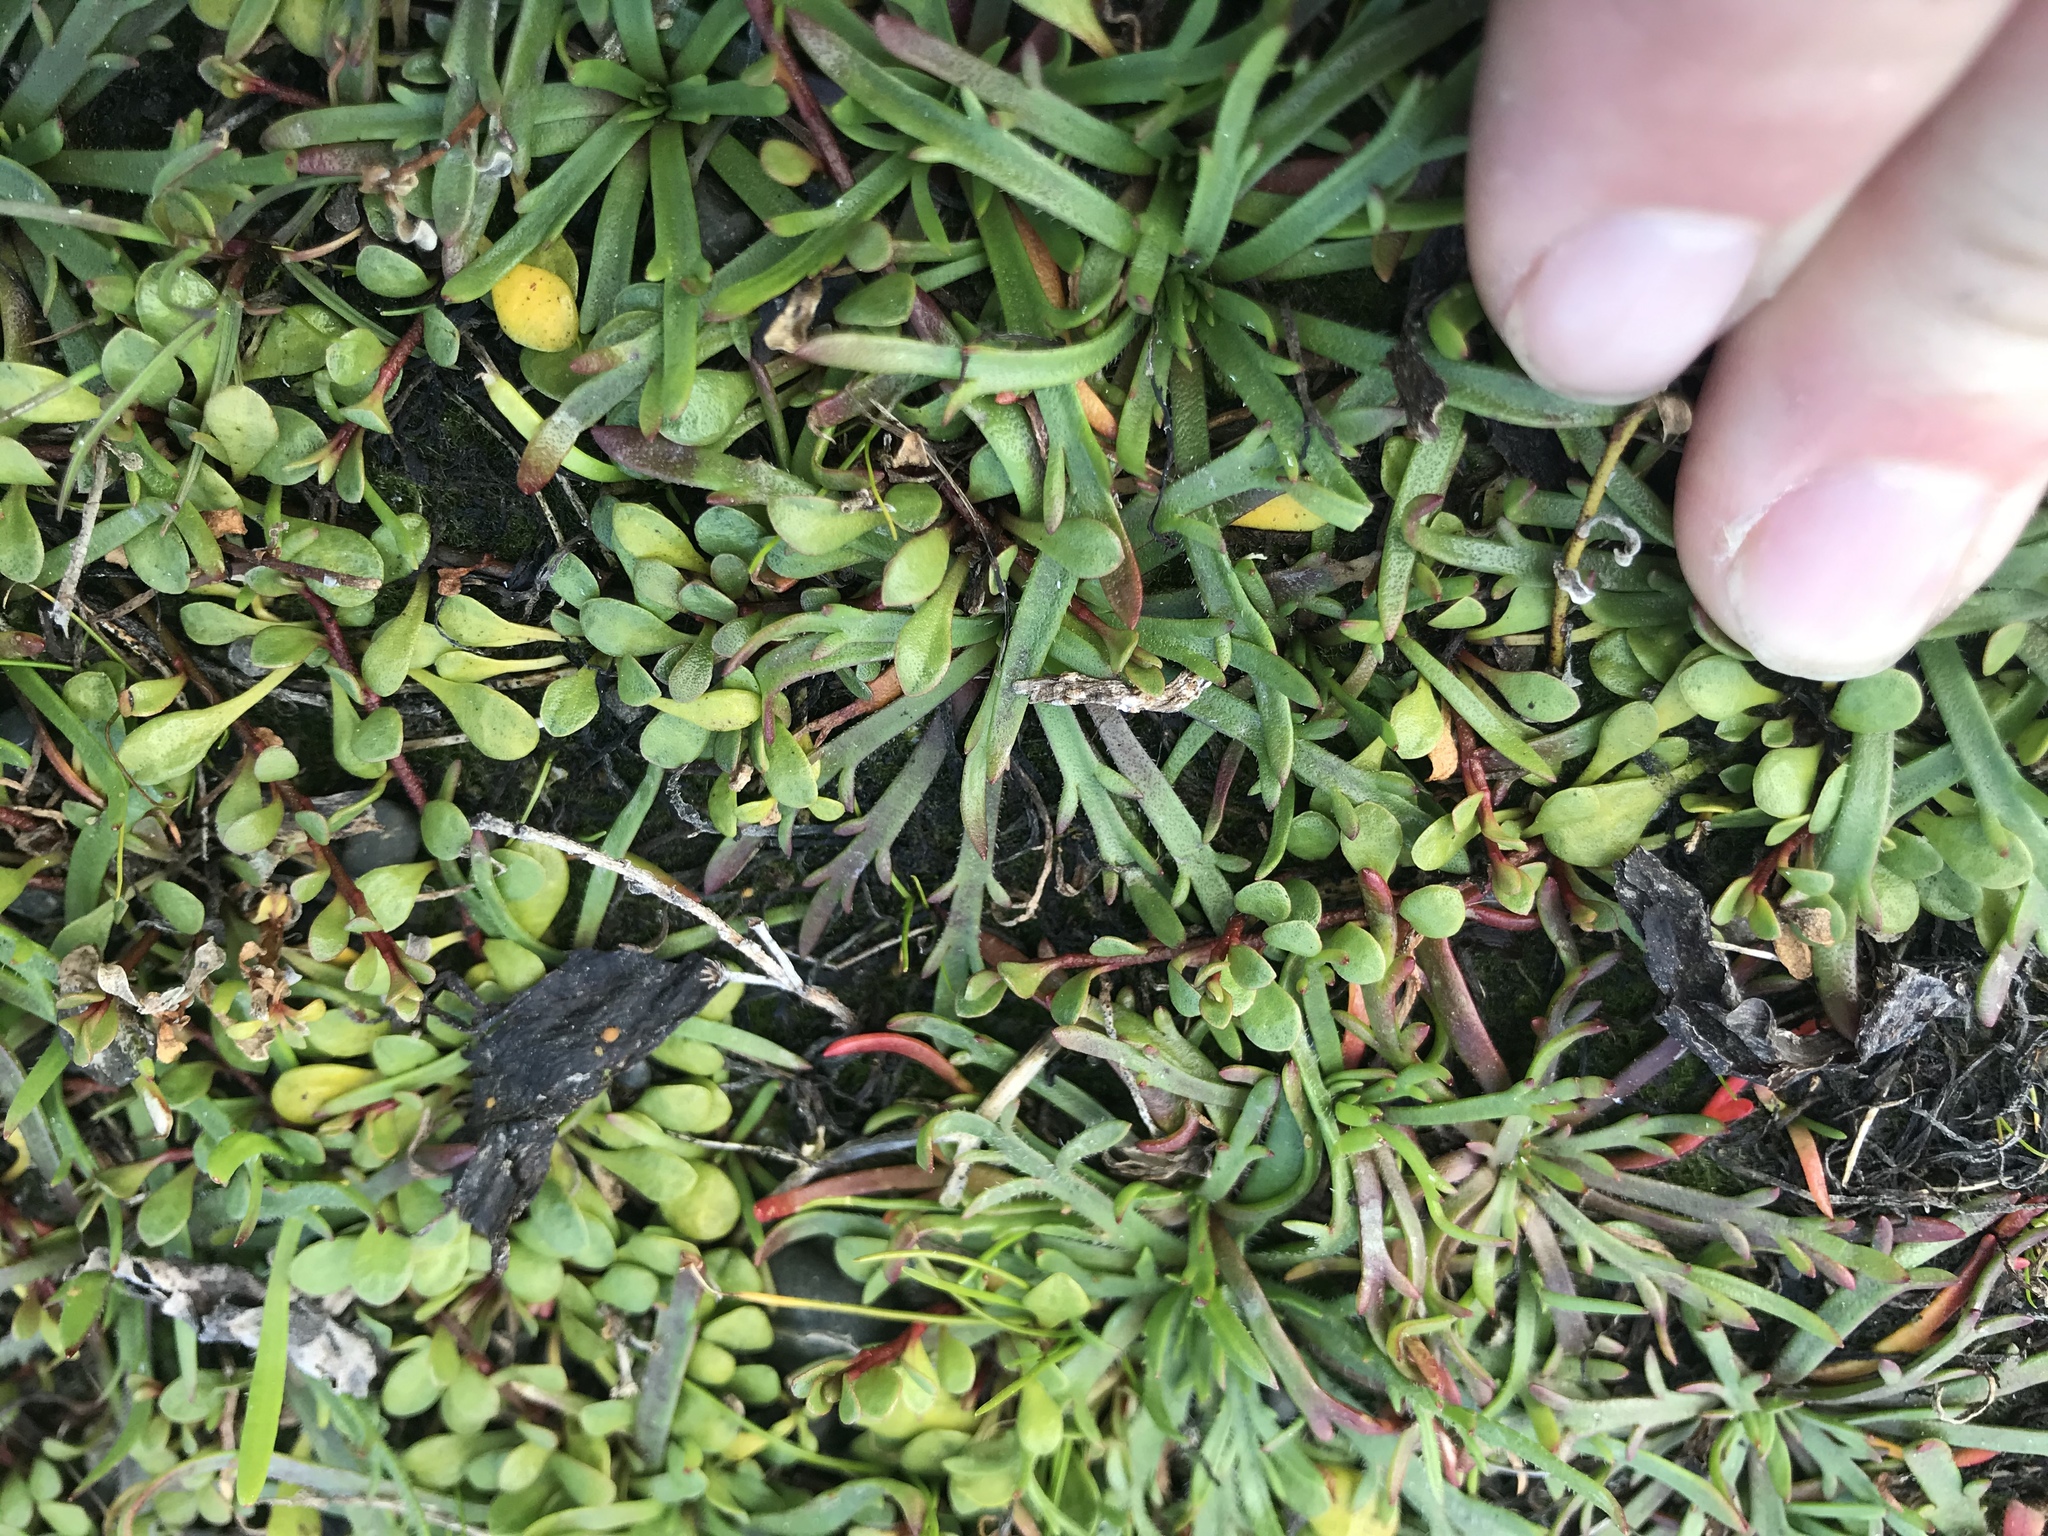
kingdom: Plantae
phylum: Tracheophyta
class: Magnoliopsida
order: Ericales
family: Primulaceae
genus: Samolus
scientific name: Samolus repens
